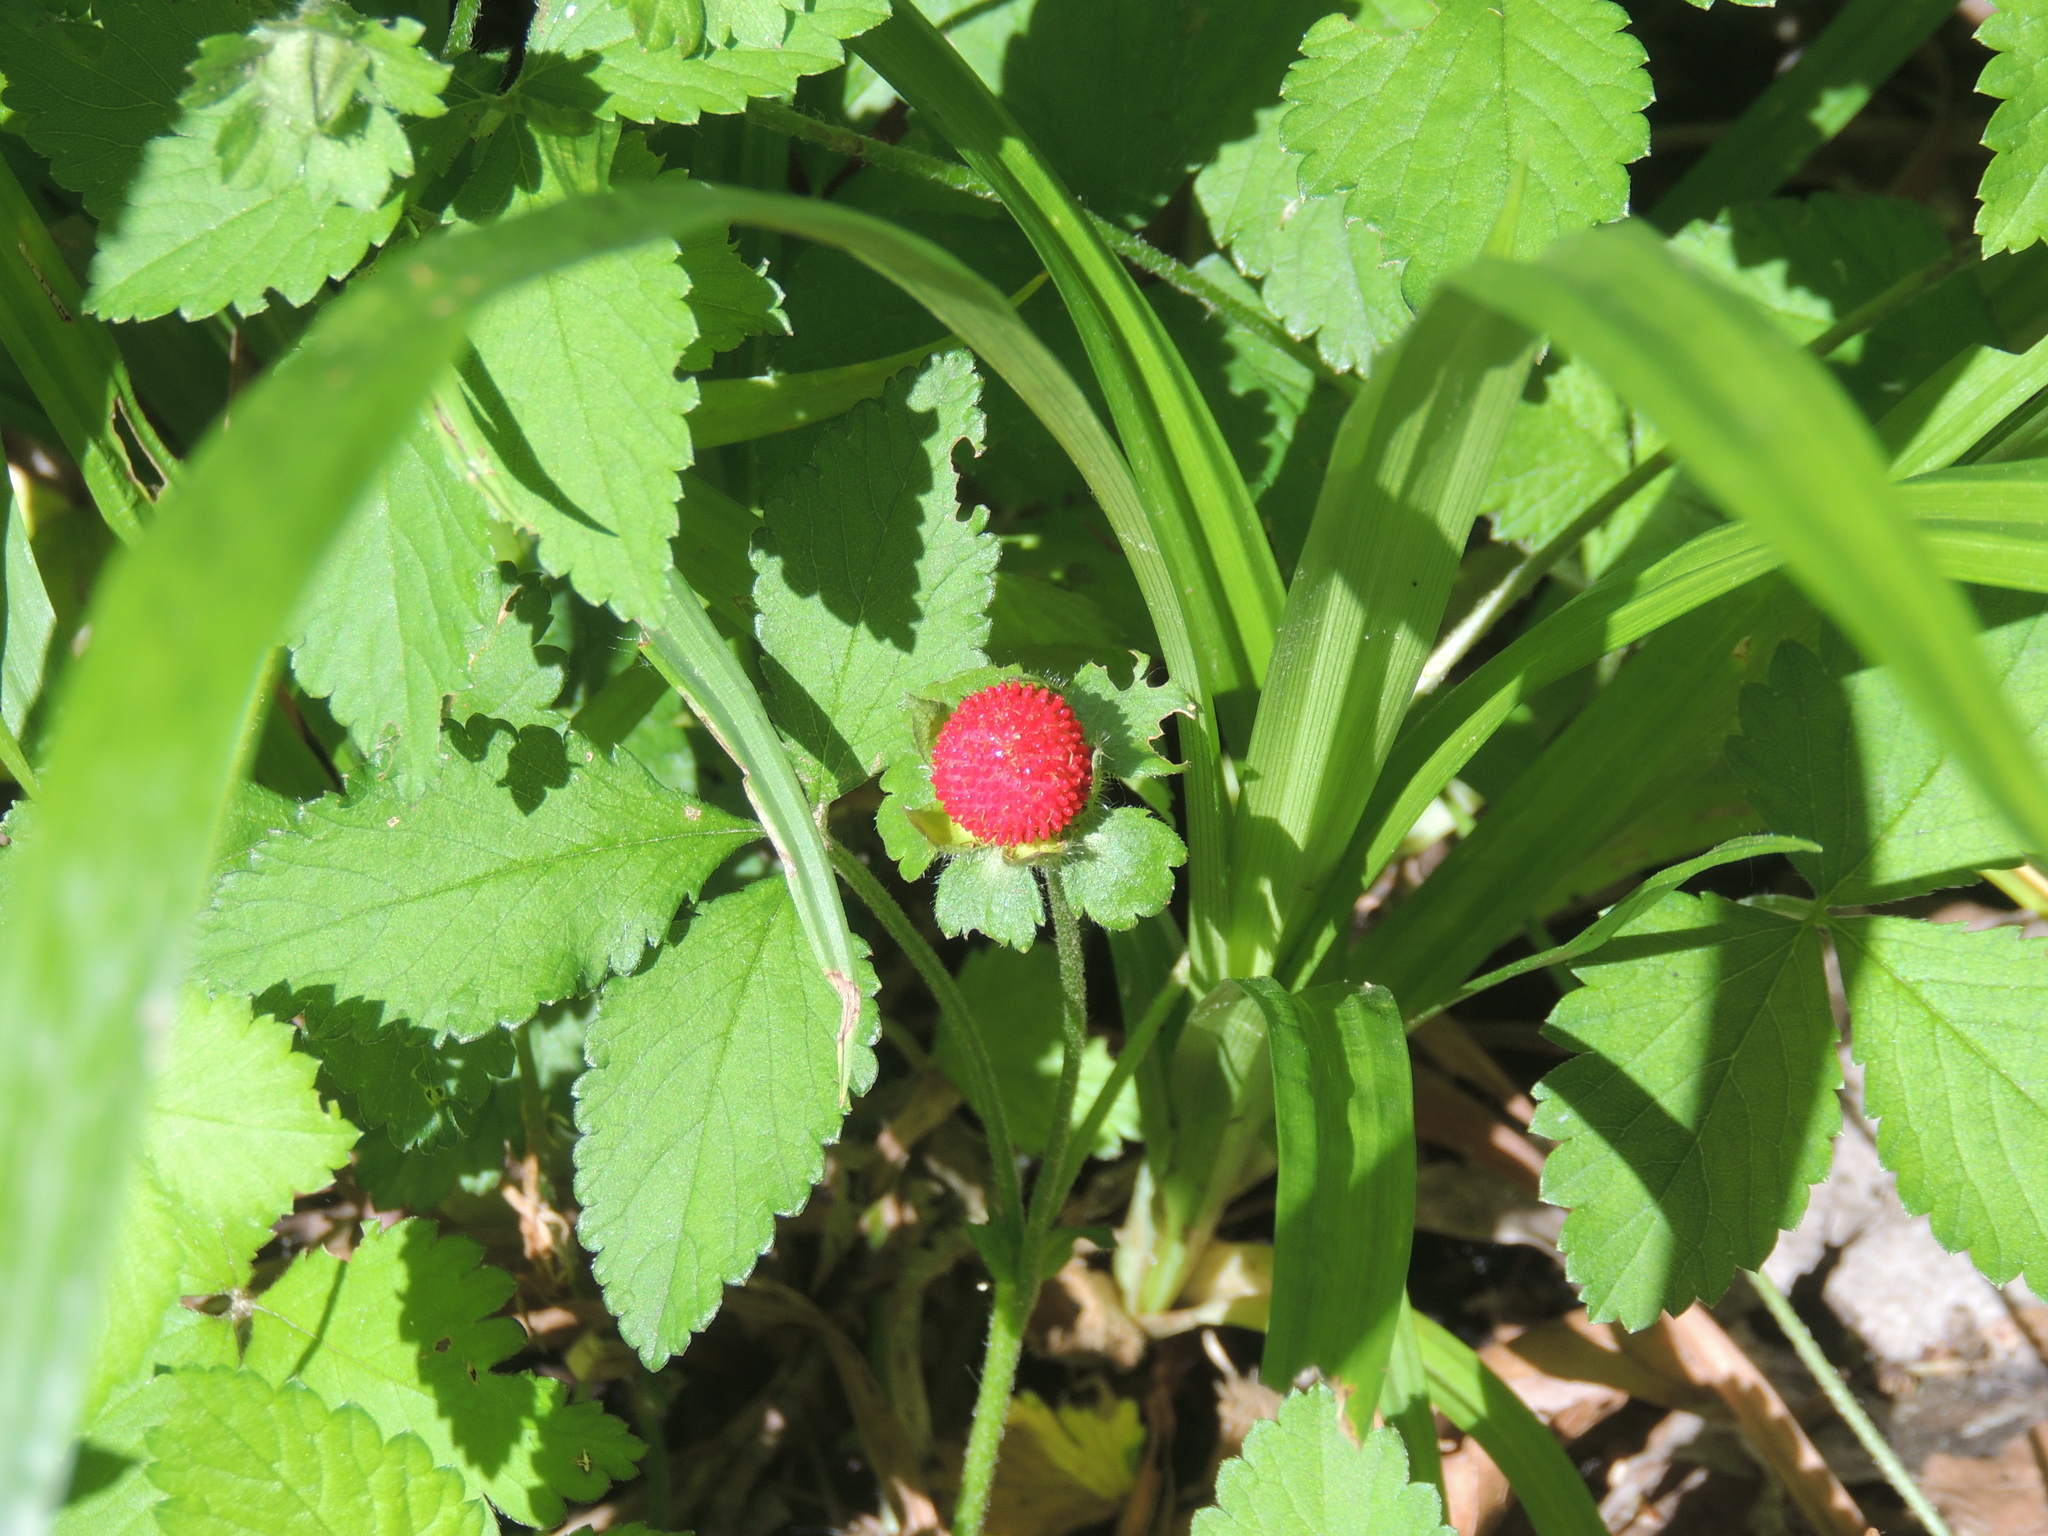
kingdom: Plantae
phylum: Tracheophyta
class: Magnoliopsida
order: Rosales
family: Rosaceae
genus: Potentilla
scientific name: Potentilla indica
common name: Yellow-flowered strawberry
